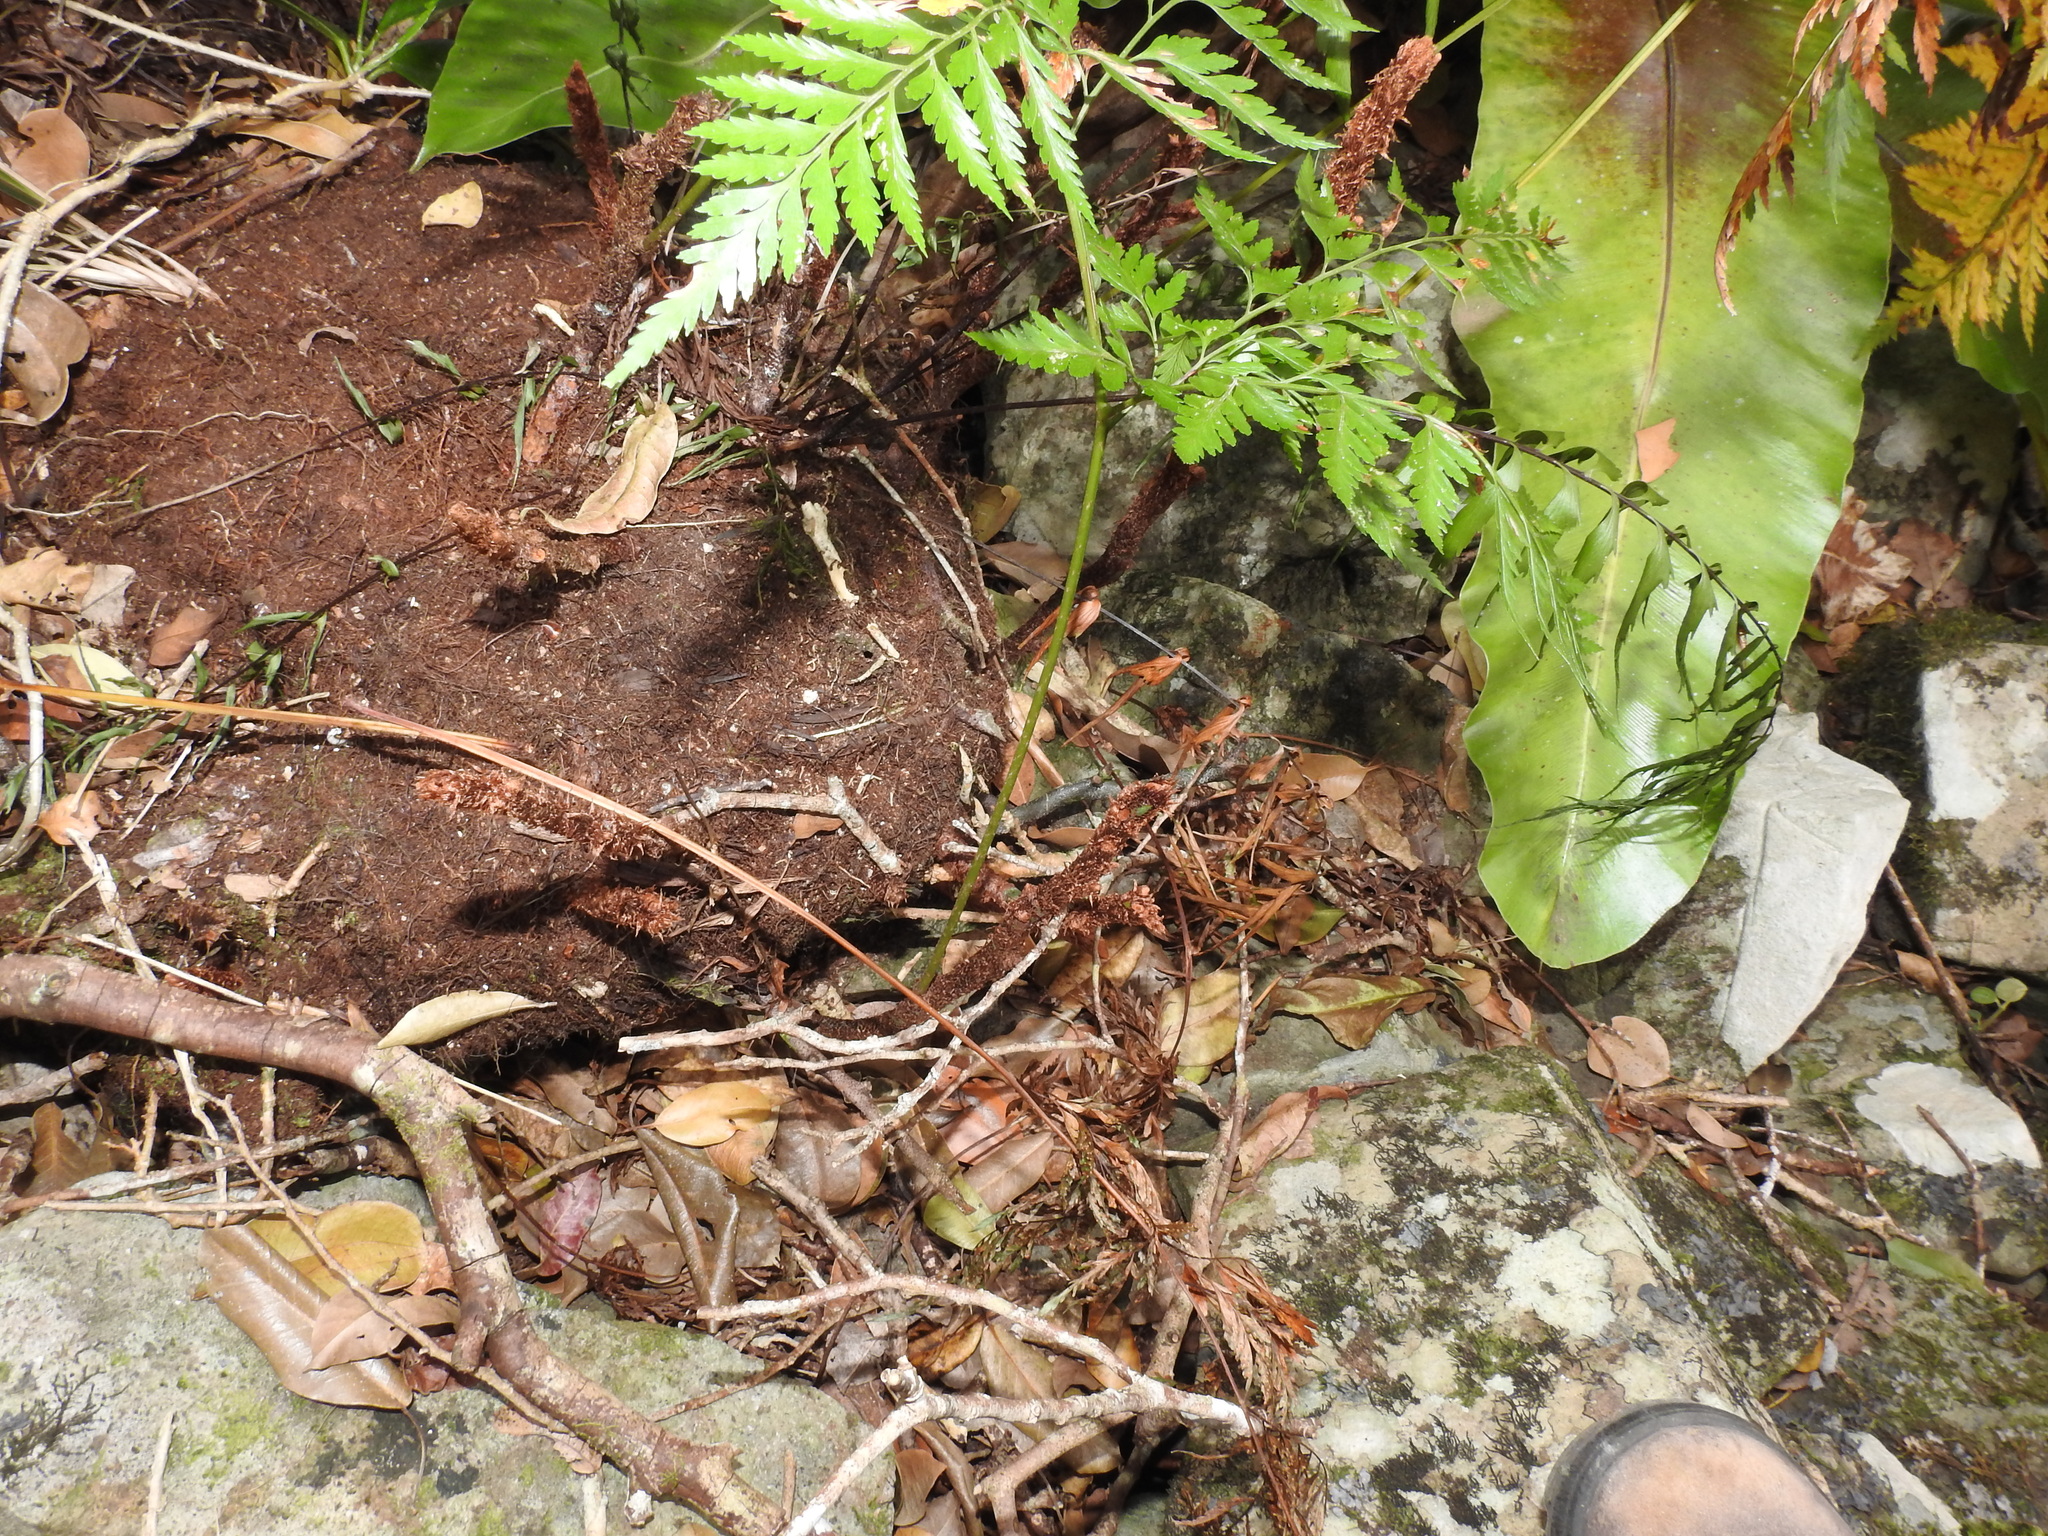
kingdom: Plantae
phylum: Tracheophyta
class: Polypodiopsida
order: Polypodiales
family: Davalliaceae
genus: Davallia
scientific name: Davallia solida
